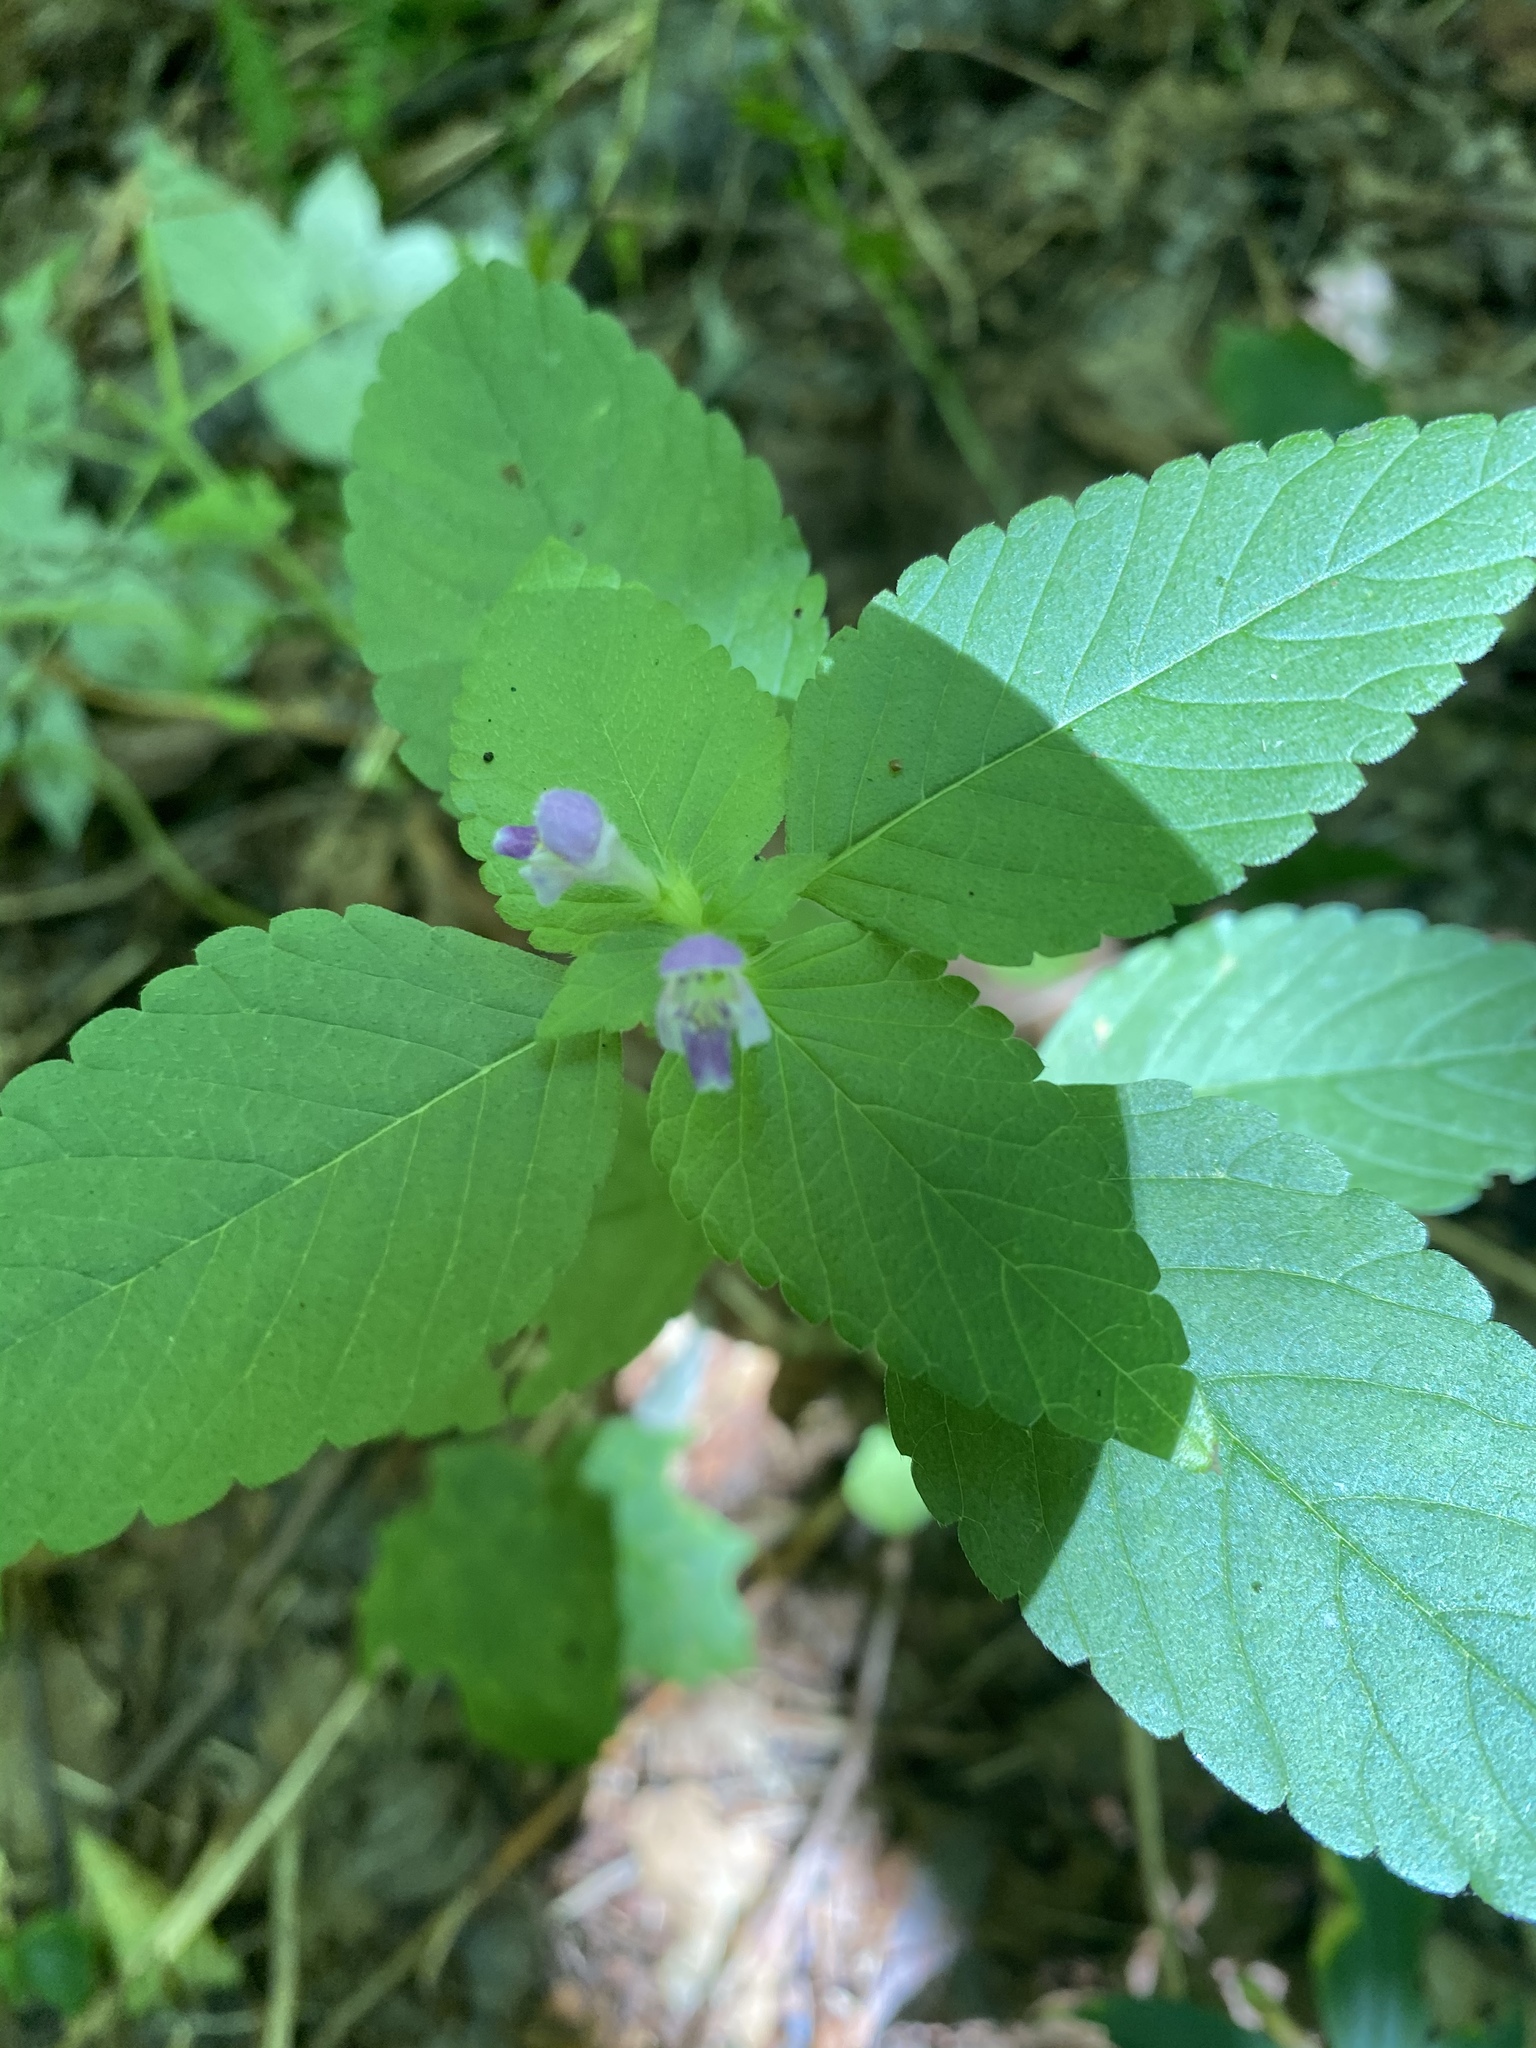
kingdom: Plantae
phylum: Tracheophyta
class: Magnoliopsida
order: Lamiales
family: Lamiaceae
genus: Galeopsis
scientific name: Galeopsis bifida
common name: Bifid hemp-nettle
